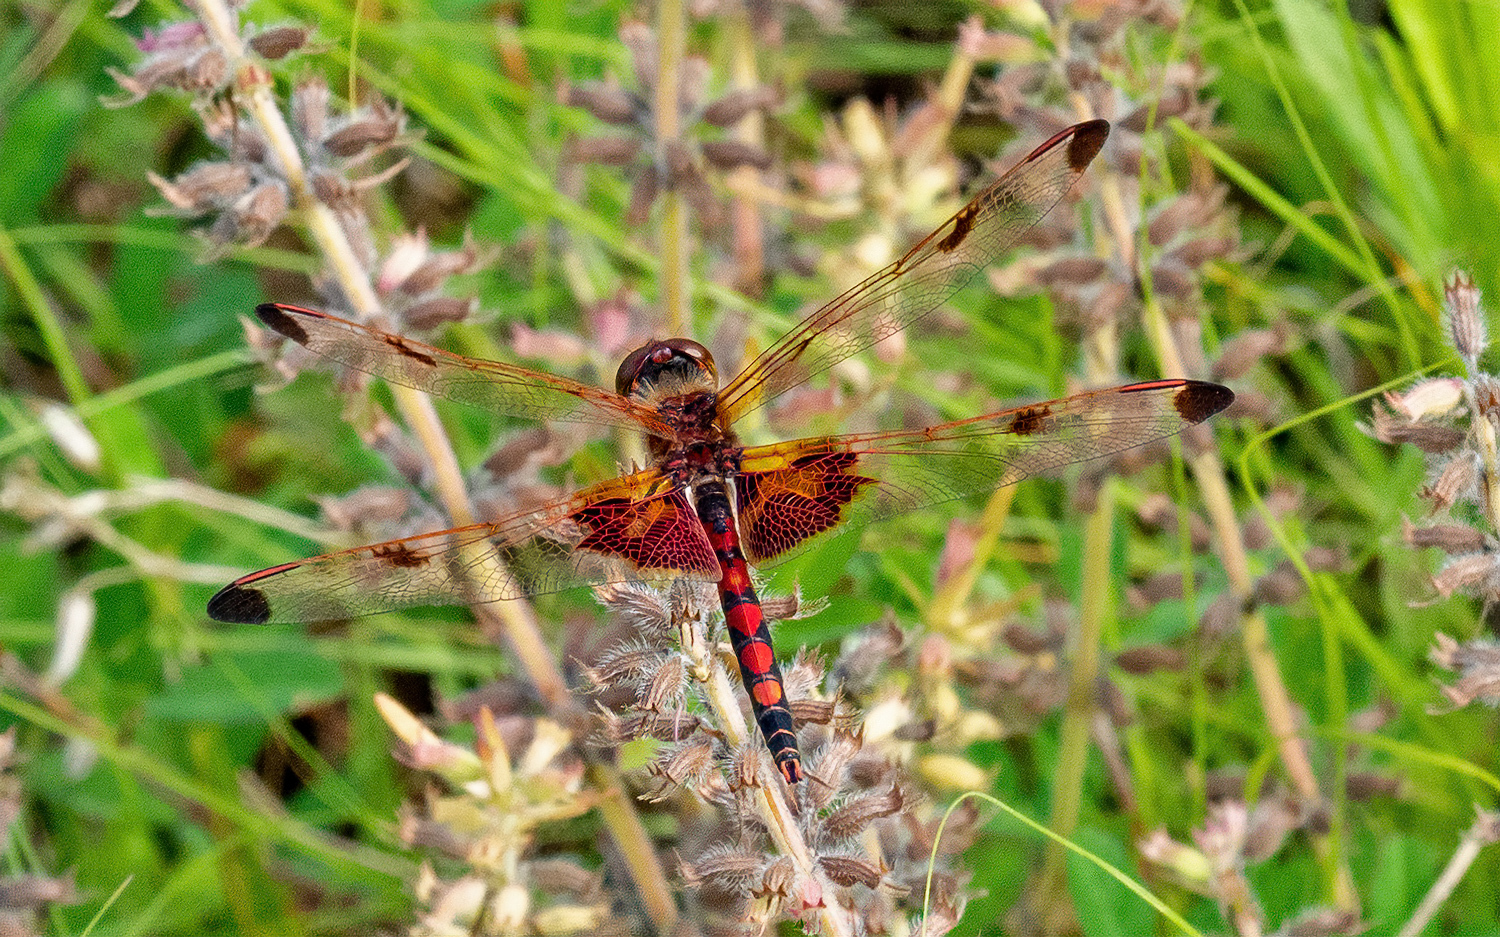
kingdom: Animalia
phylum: Arthropoda
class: Insecta
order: Odonata
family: Libellulidae
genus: Celithemis
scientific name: Celithemis elisa
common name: Calico pennant
